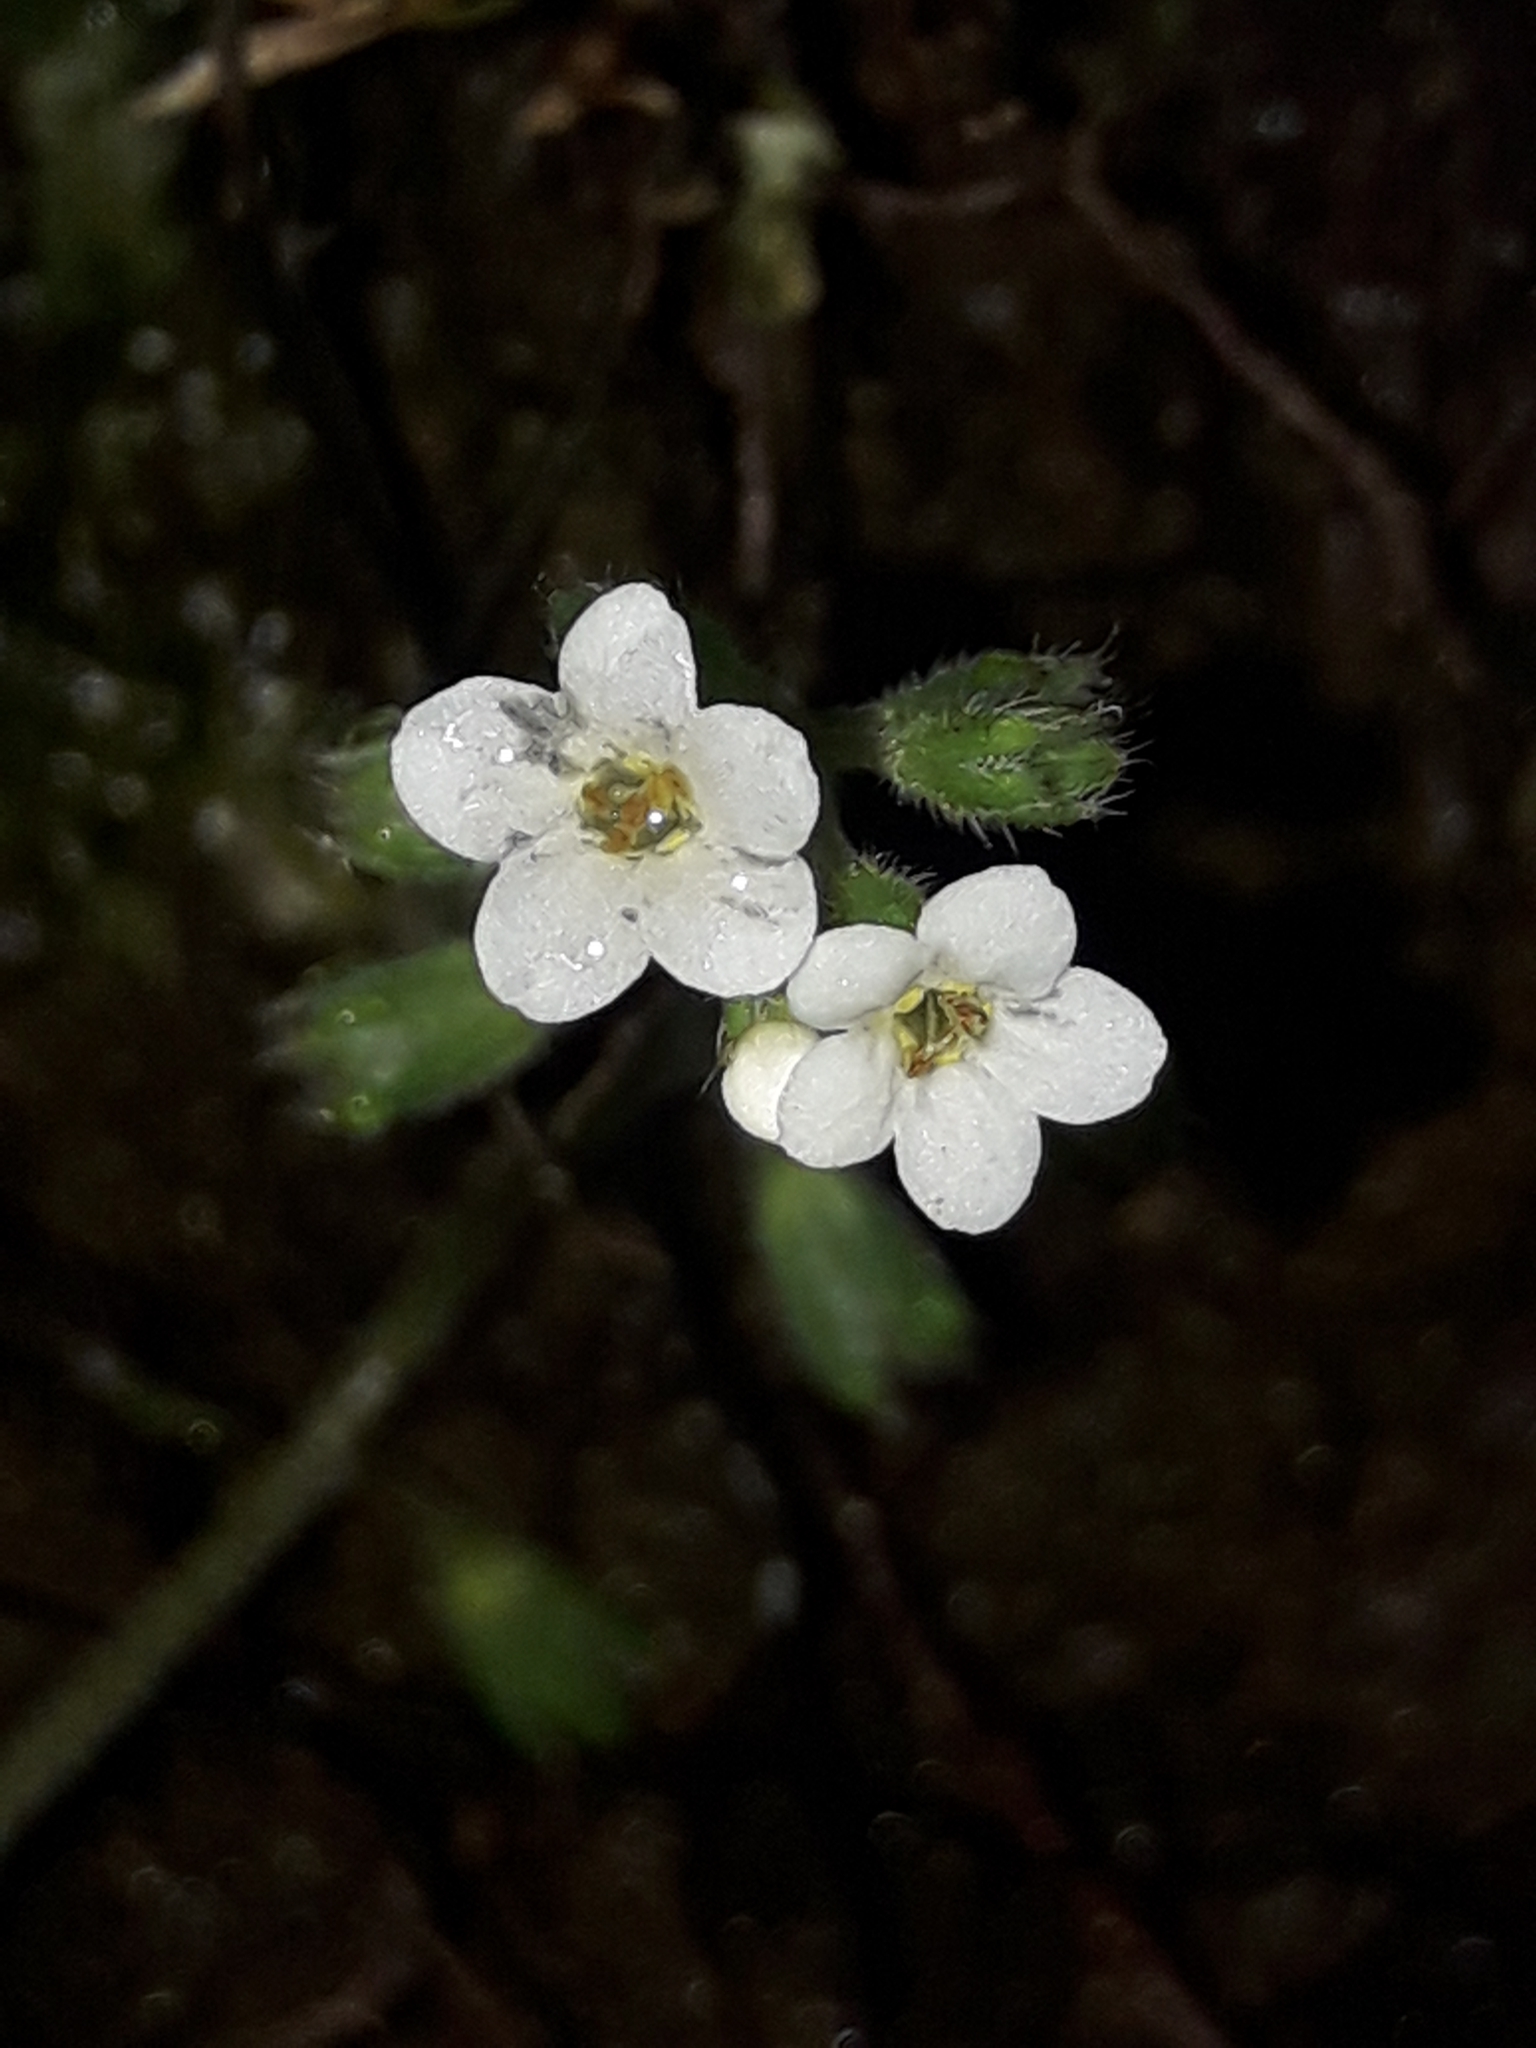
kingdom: Plantae
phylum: Tracheophyta
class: Magnoliopsida
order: Boraginales
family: Boraginaceae
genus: Myosotis
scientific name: Myosotis forsteri
